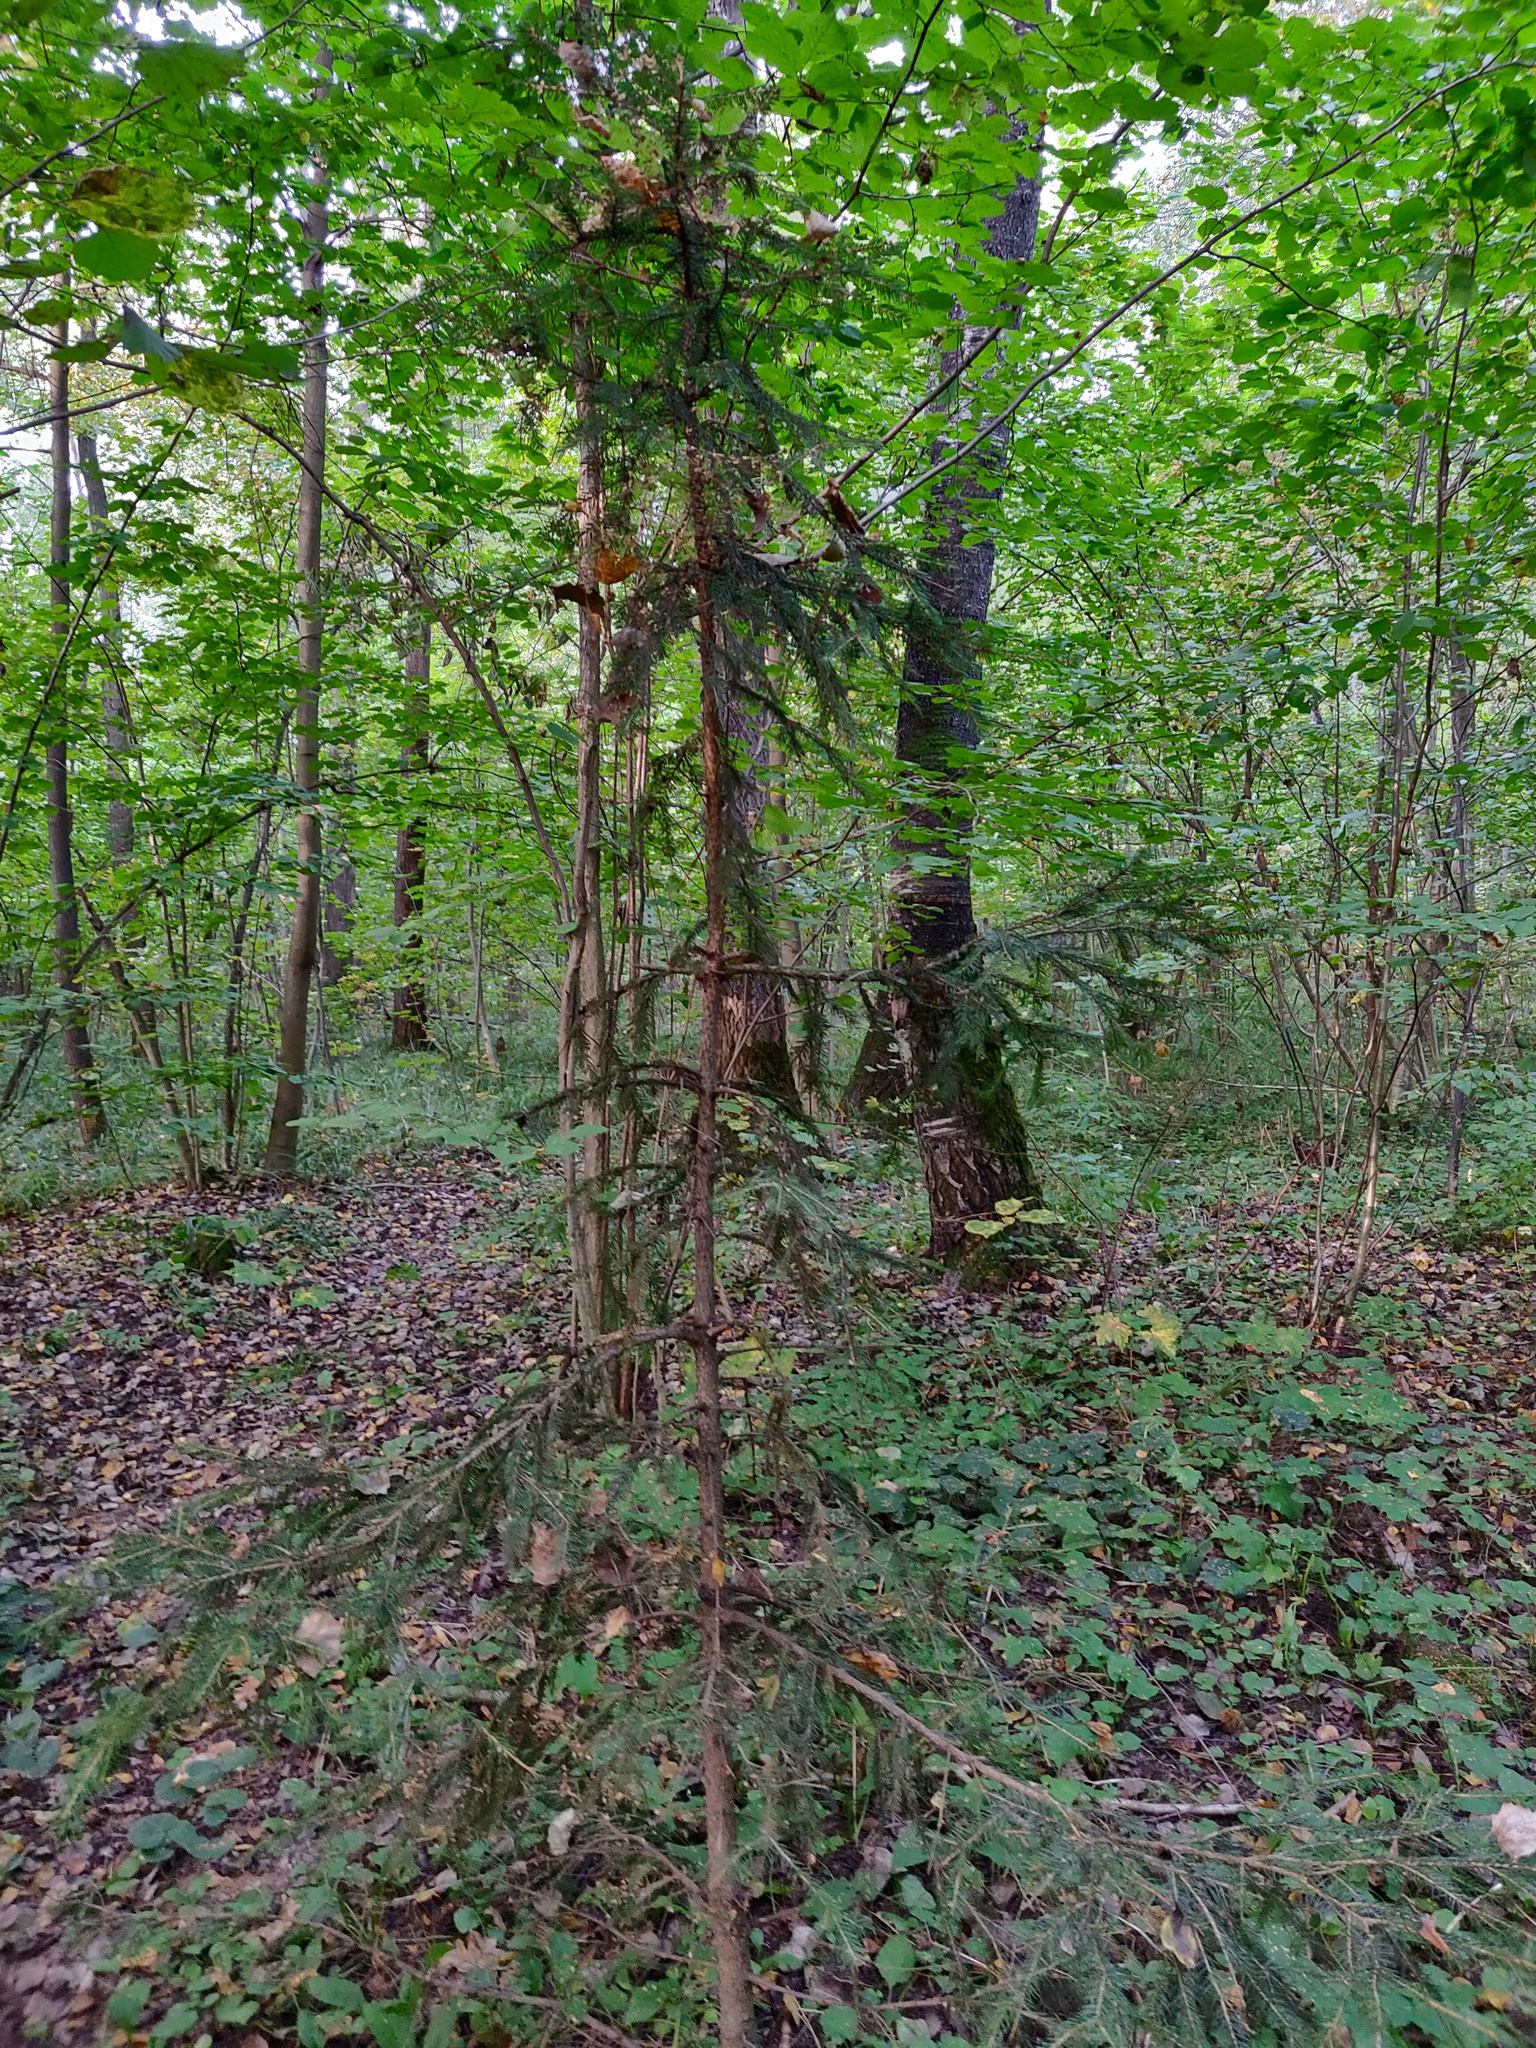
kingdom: Plantae
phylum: Tracheophyta
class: Pinopsida
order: Pinales
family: Pinaceae
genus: Picea
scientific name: Picea abies
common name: Norway spruce
